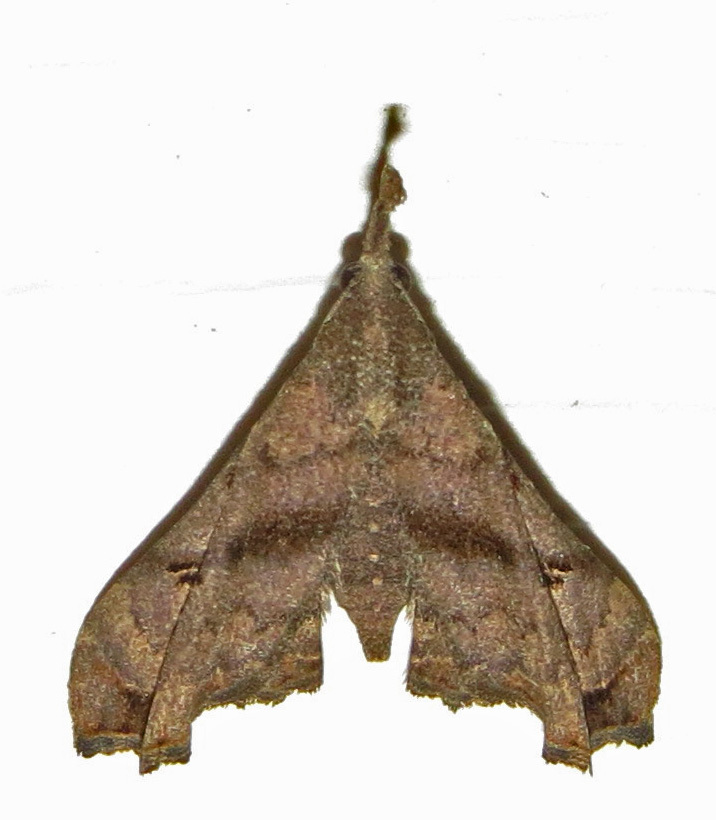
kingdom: Animalia
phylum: Arthropoda
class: Insecta
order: Lepidoptera
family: Erebidae
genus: Palthis
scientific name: Palthis asopialis
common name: Faint-spotted palthis moth
